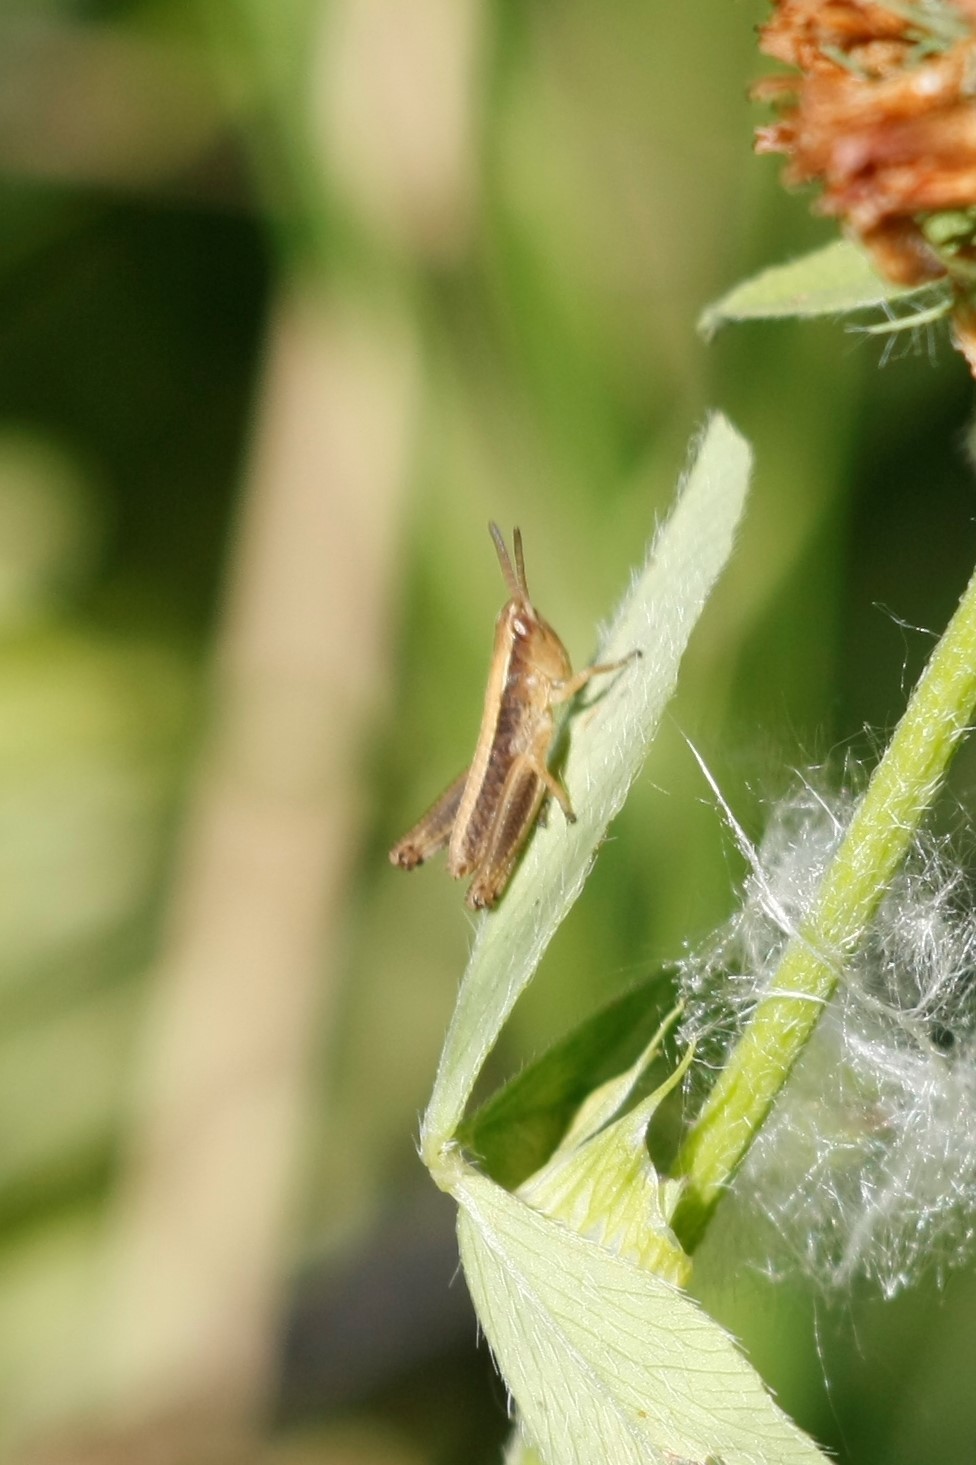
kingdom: Animalia
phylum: Arthropoda
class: Insecta
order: Orthoptera
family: Acrididae
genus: Pseudochorthippus
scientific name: Pseudochorthippus parallelus
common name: Meadow grasshopper
